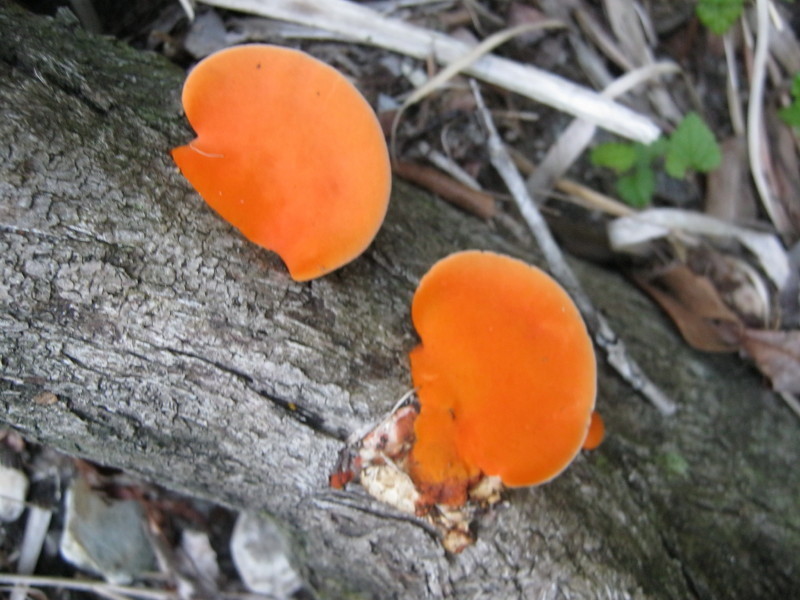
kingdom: Fungi
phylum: Basidiomycota
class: Agaricomycetes
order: Polyporales
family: Polyporaceae
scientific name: Polyporaceae
